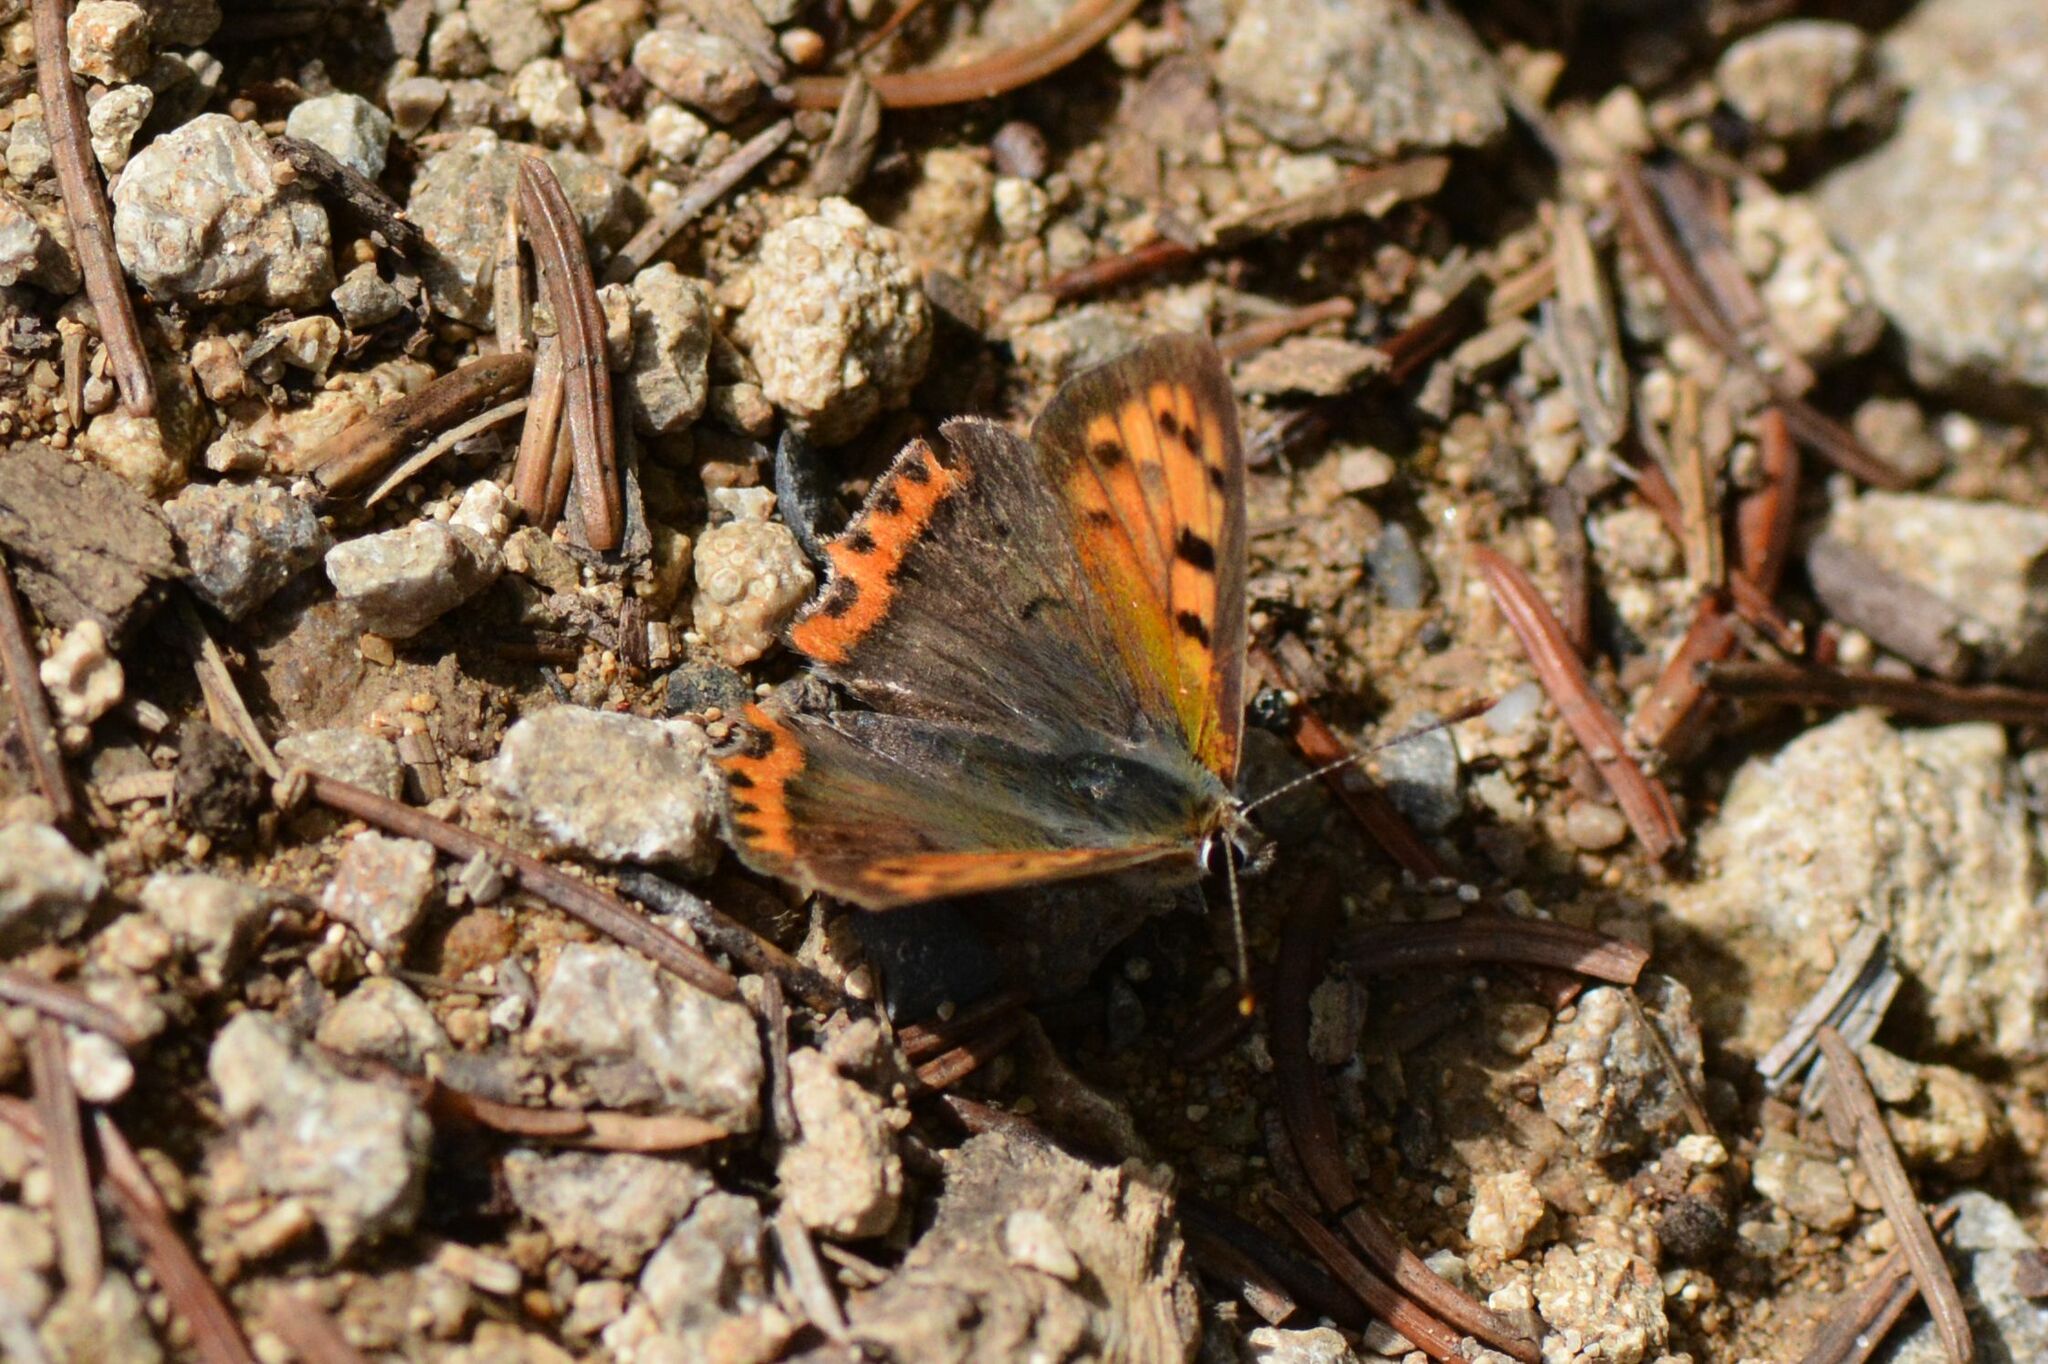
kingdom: Animalia
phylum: Arthropoda
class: Insecta
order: Lepidoptera
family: Lycaenidae
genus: Lycaena
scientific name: Lycaena phlaeas
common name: Small copper
